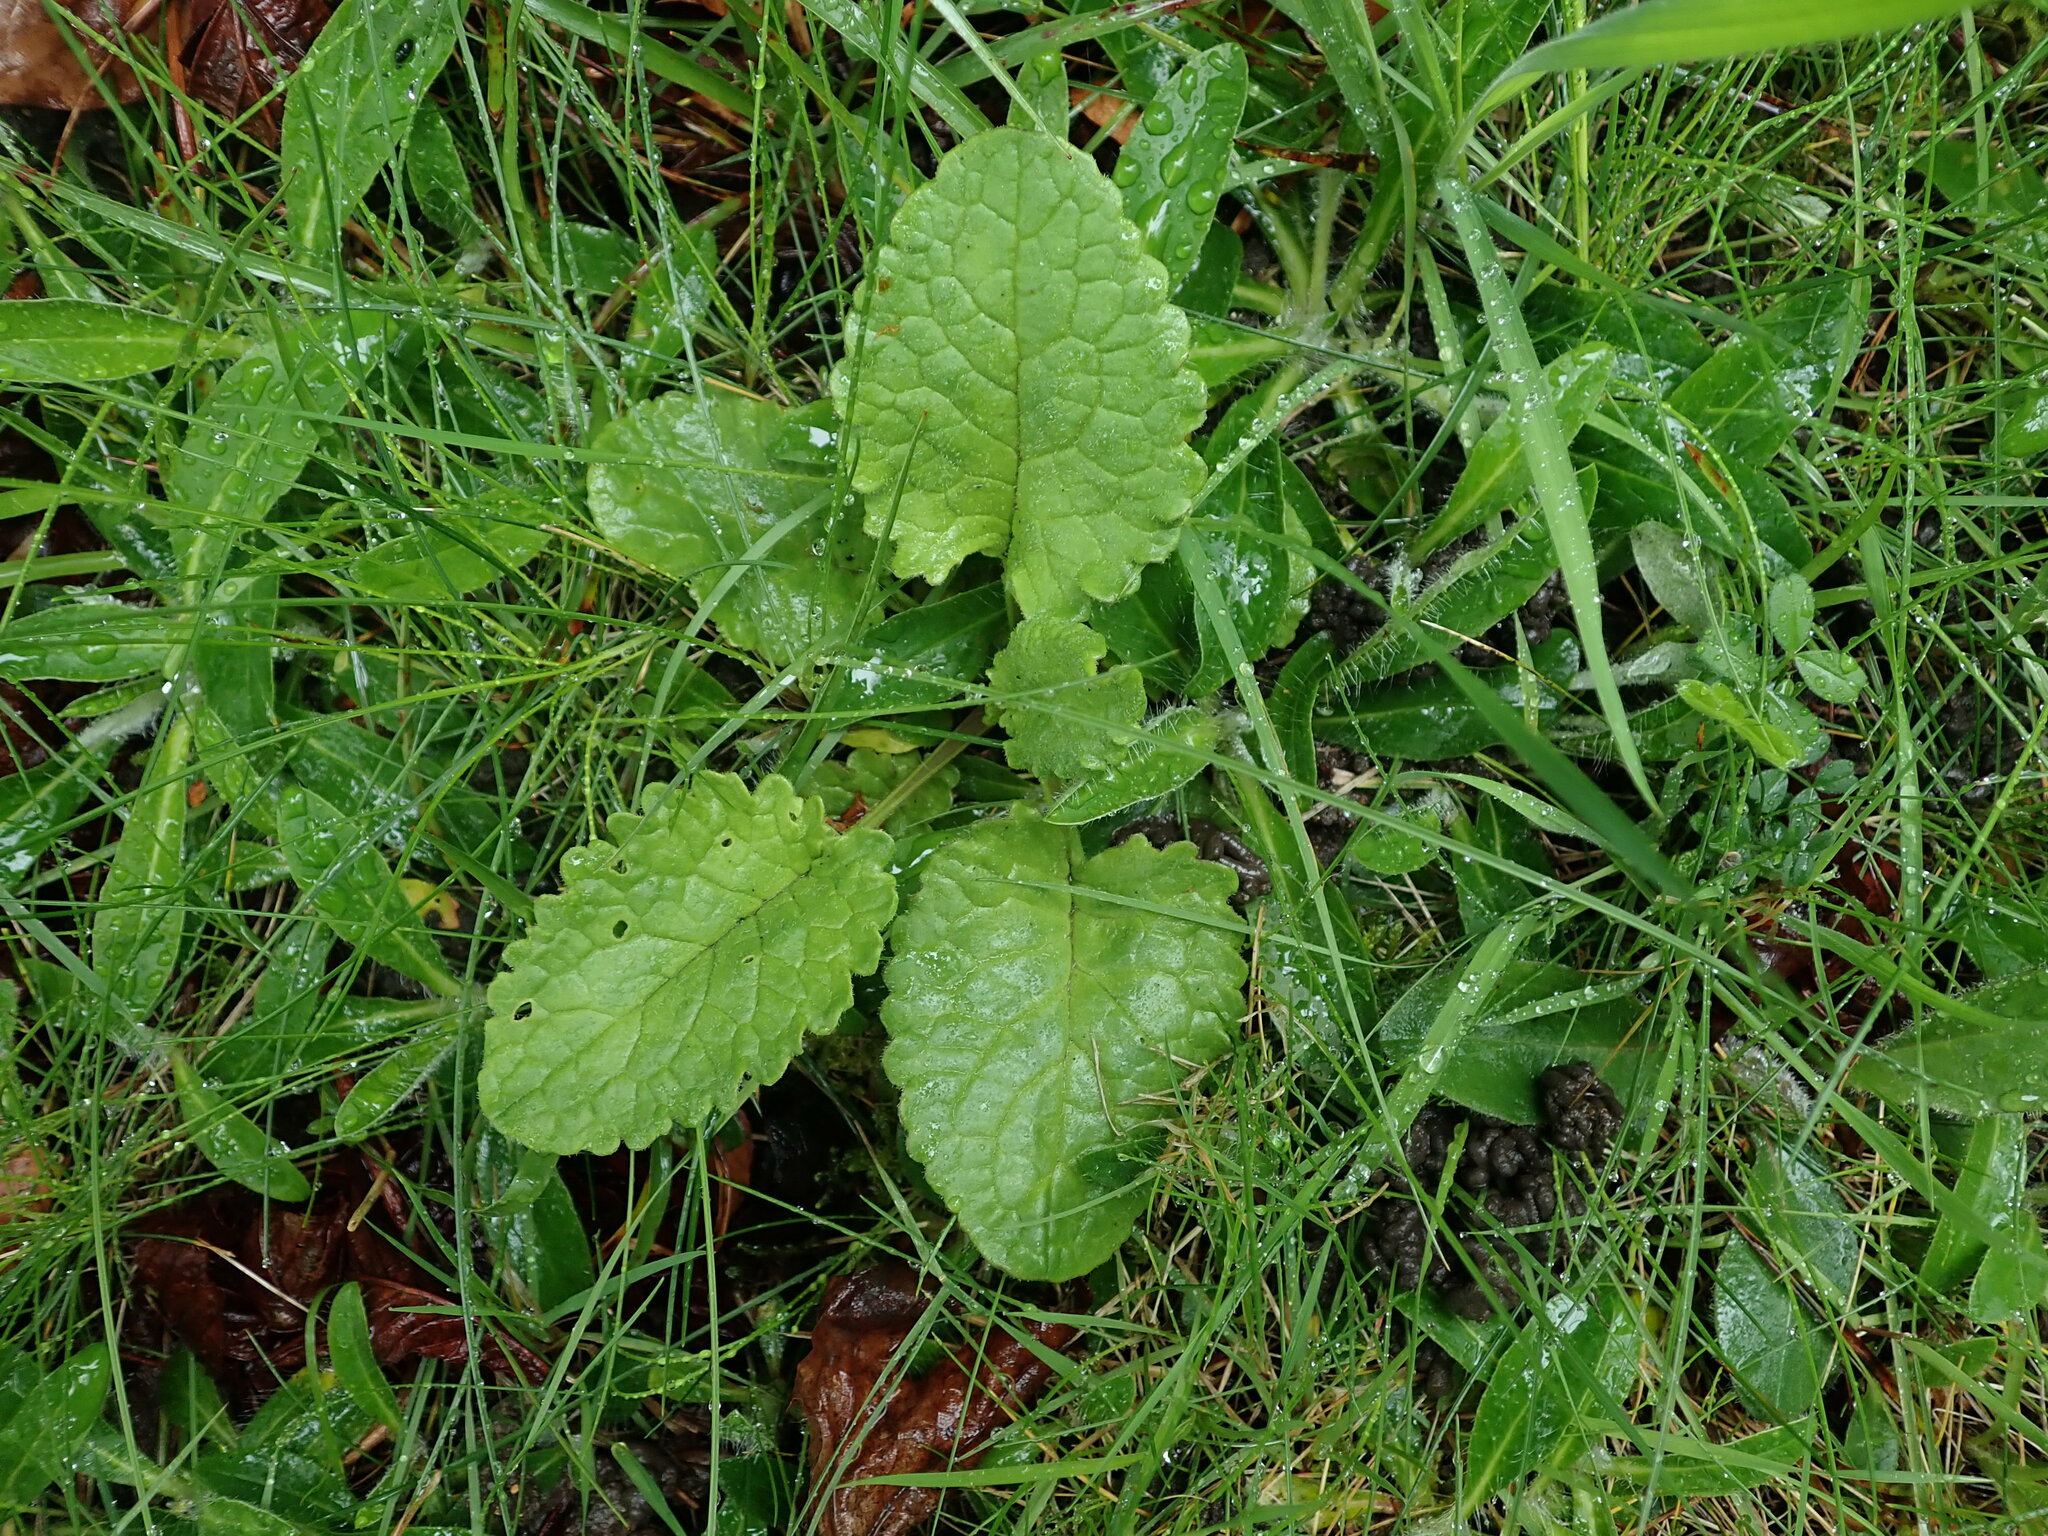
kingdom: Plantae
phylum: Tracheophyta
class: Magnoliopsida
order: Lamiales
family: Lamiaceae
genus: Betonica
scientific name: Betonica officinalis
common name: Bishop's-wort
